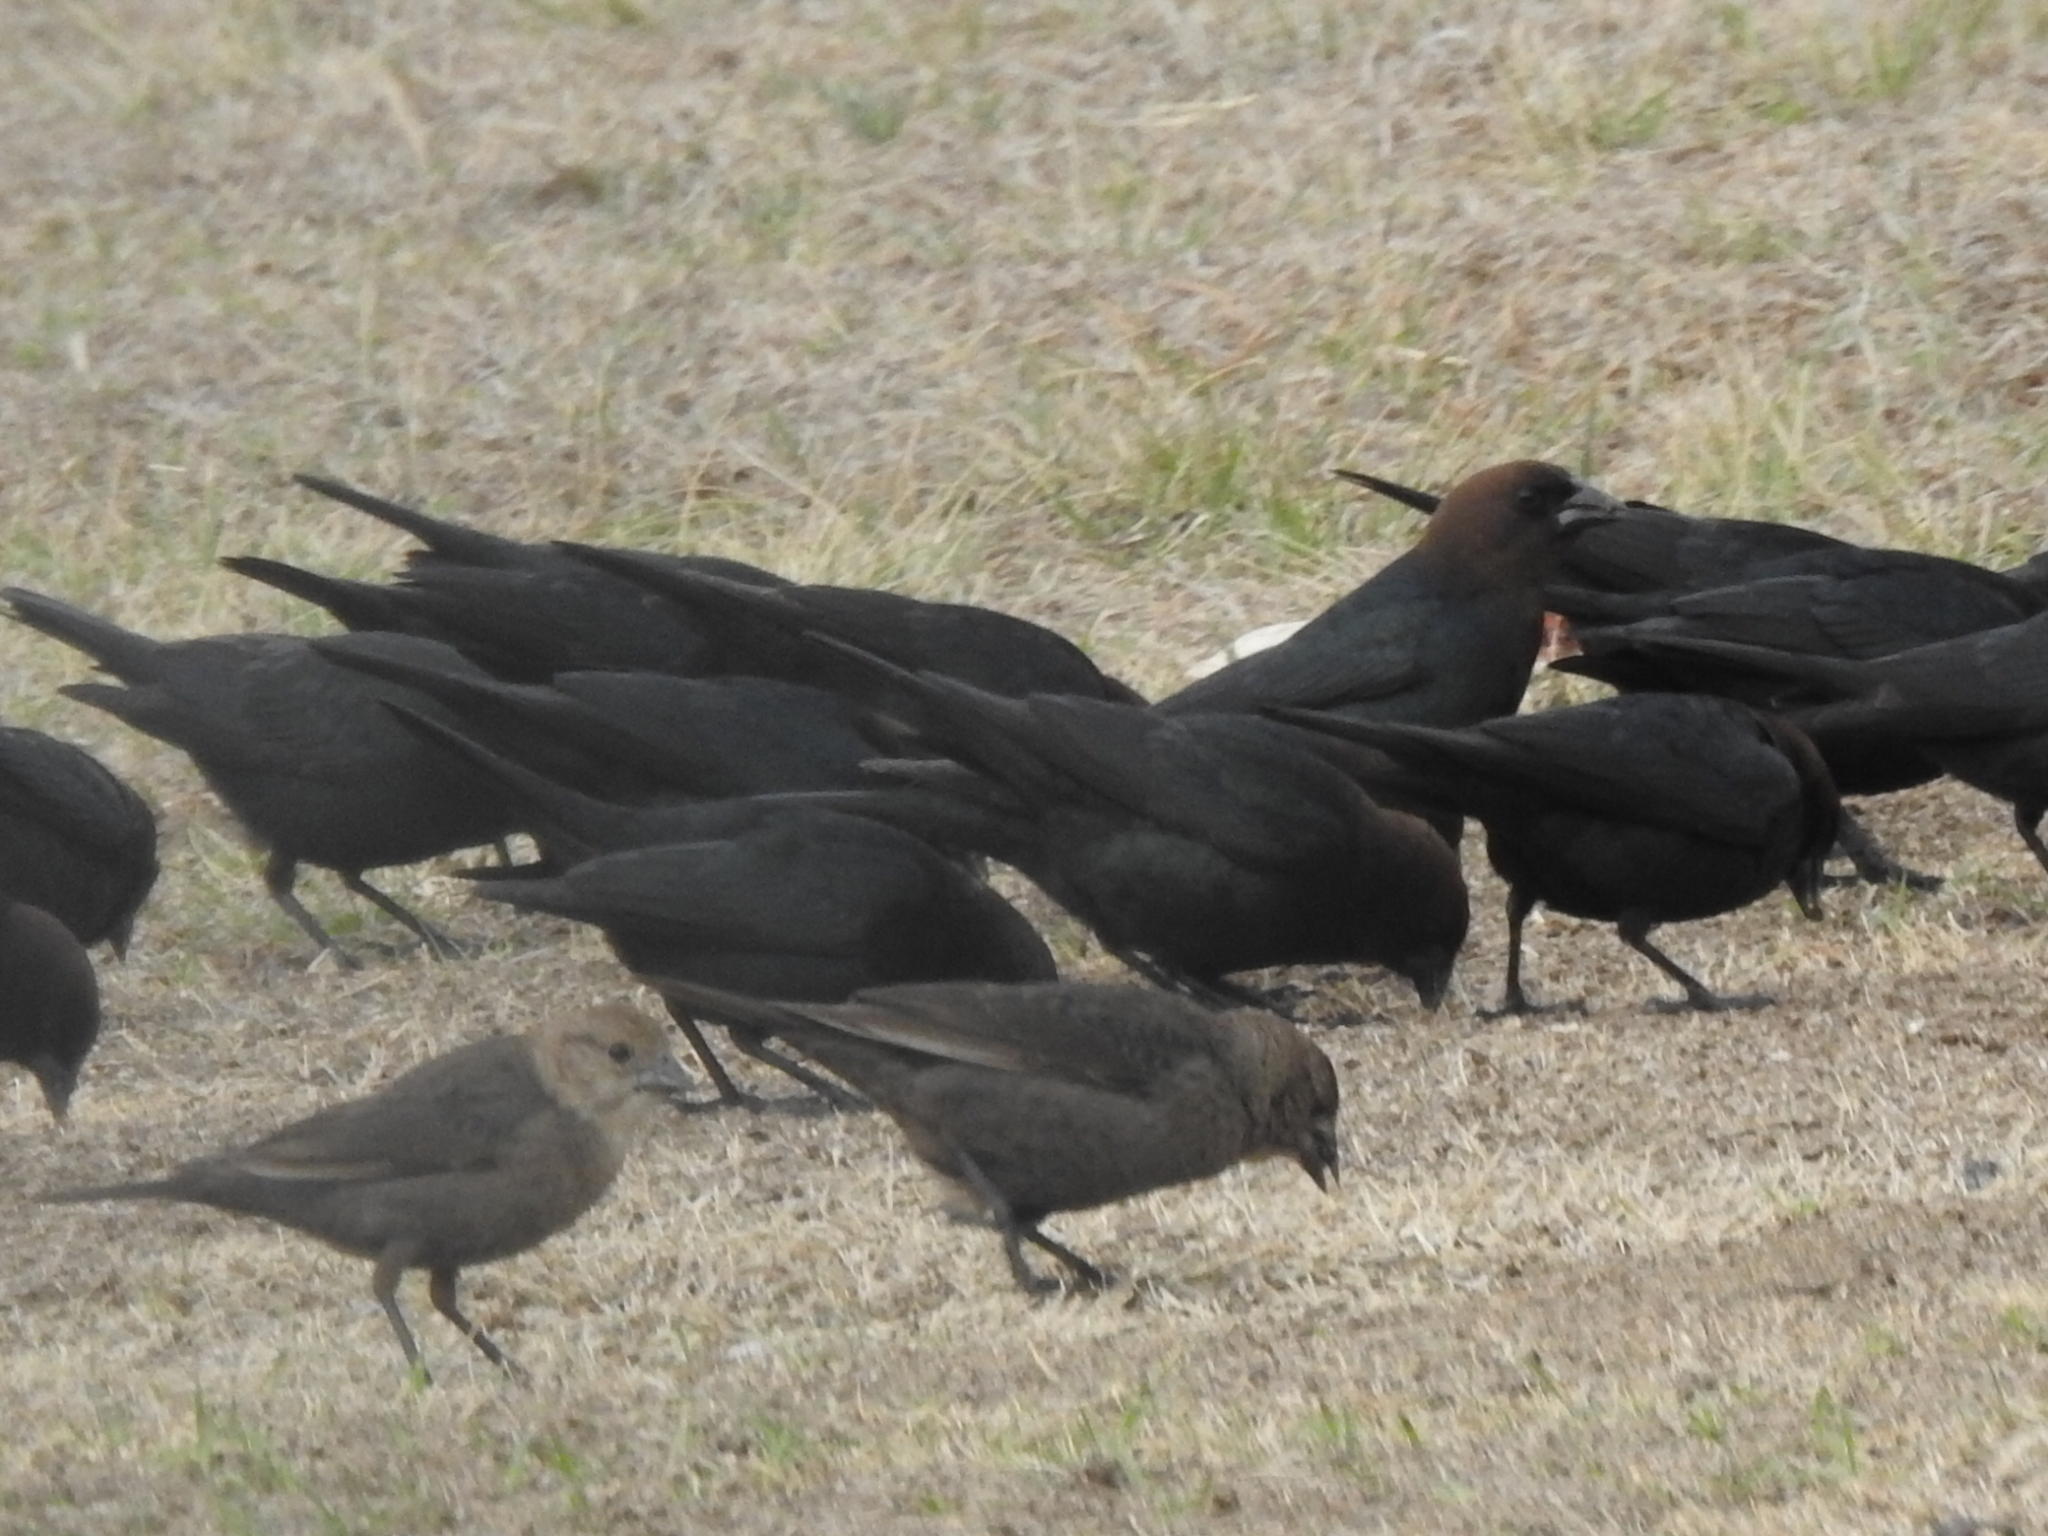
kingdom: Animalia
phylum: Chordata
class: Aves
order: Passeriformes
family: Icteridae
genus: Molothrus
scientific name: Molothrus ater
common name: Brown-headed cowbird
